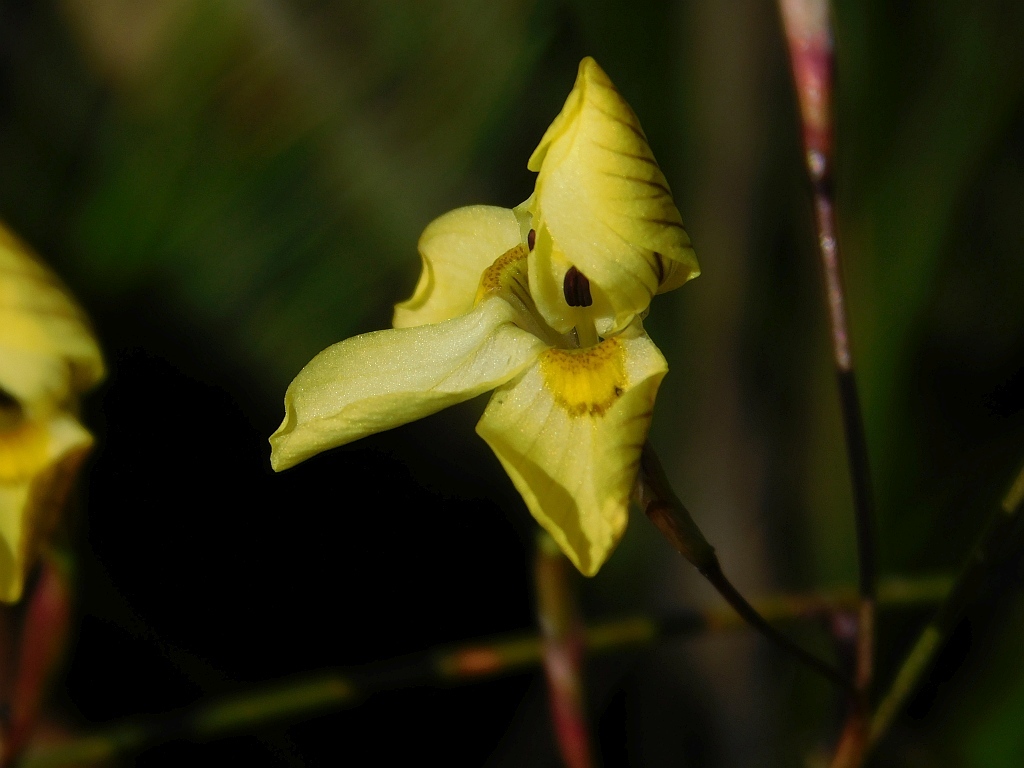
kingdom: Plantae
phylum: Tracheophyta
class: Liliopsida
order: Asparagales
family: Iridaceae
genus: Moraea
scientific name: Moraea gawleri
